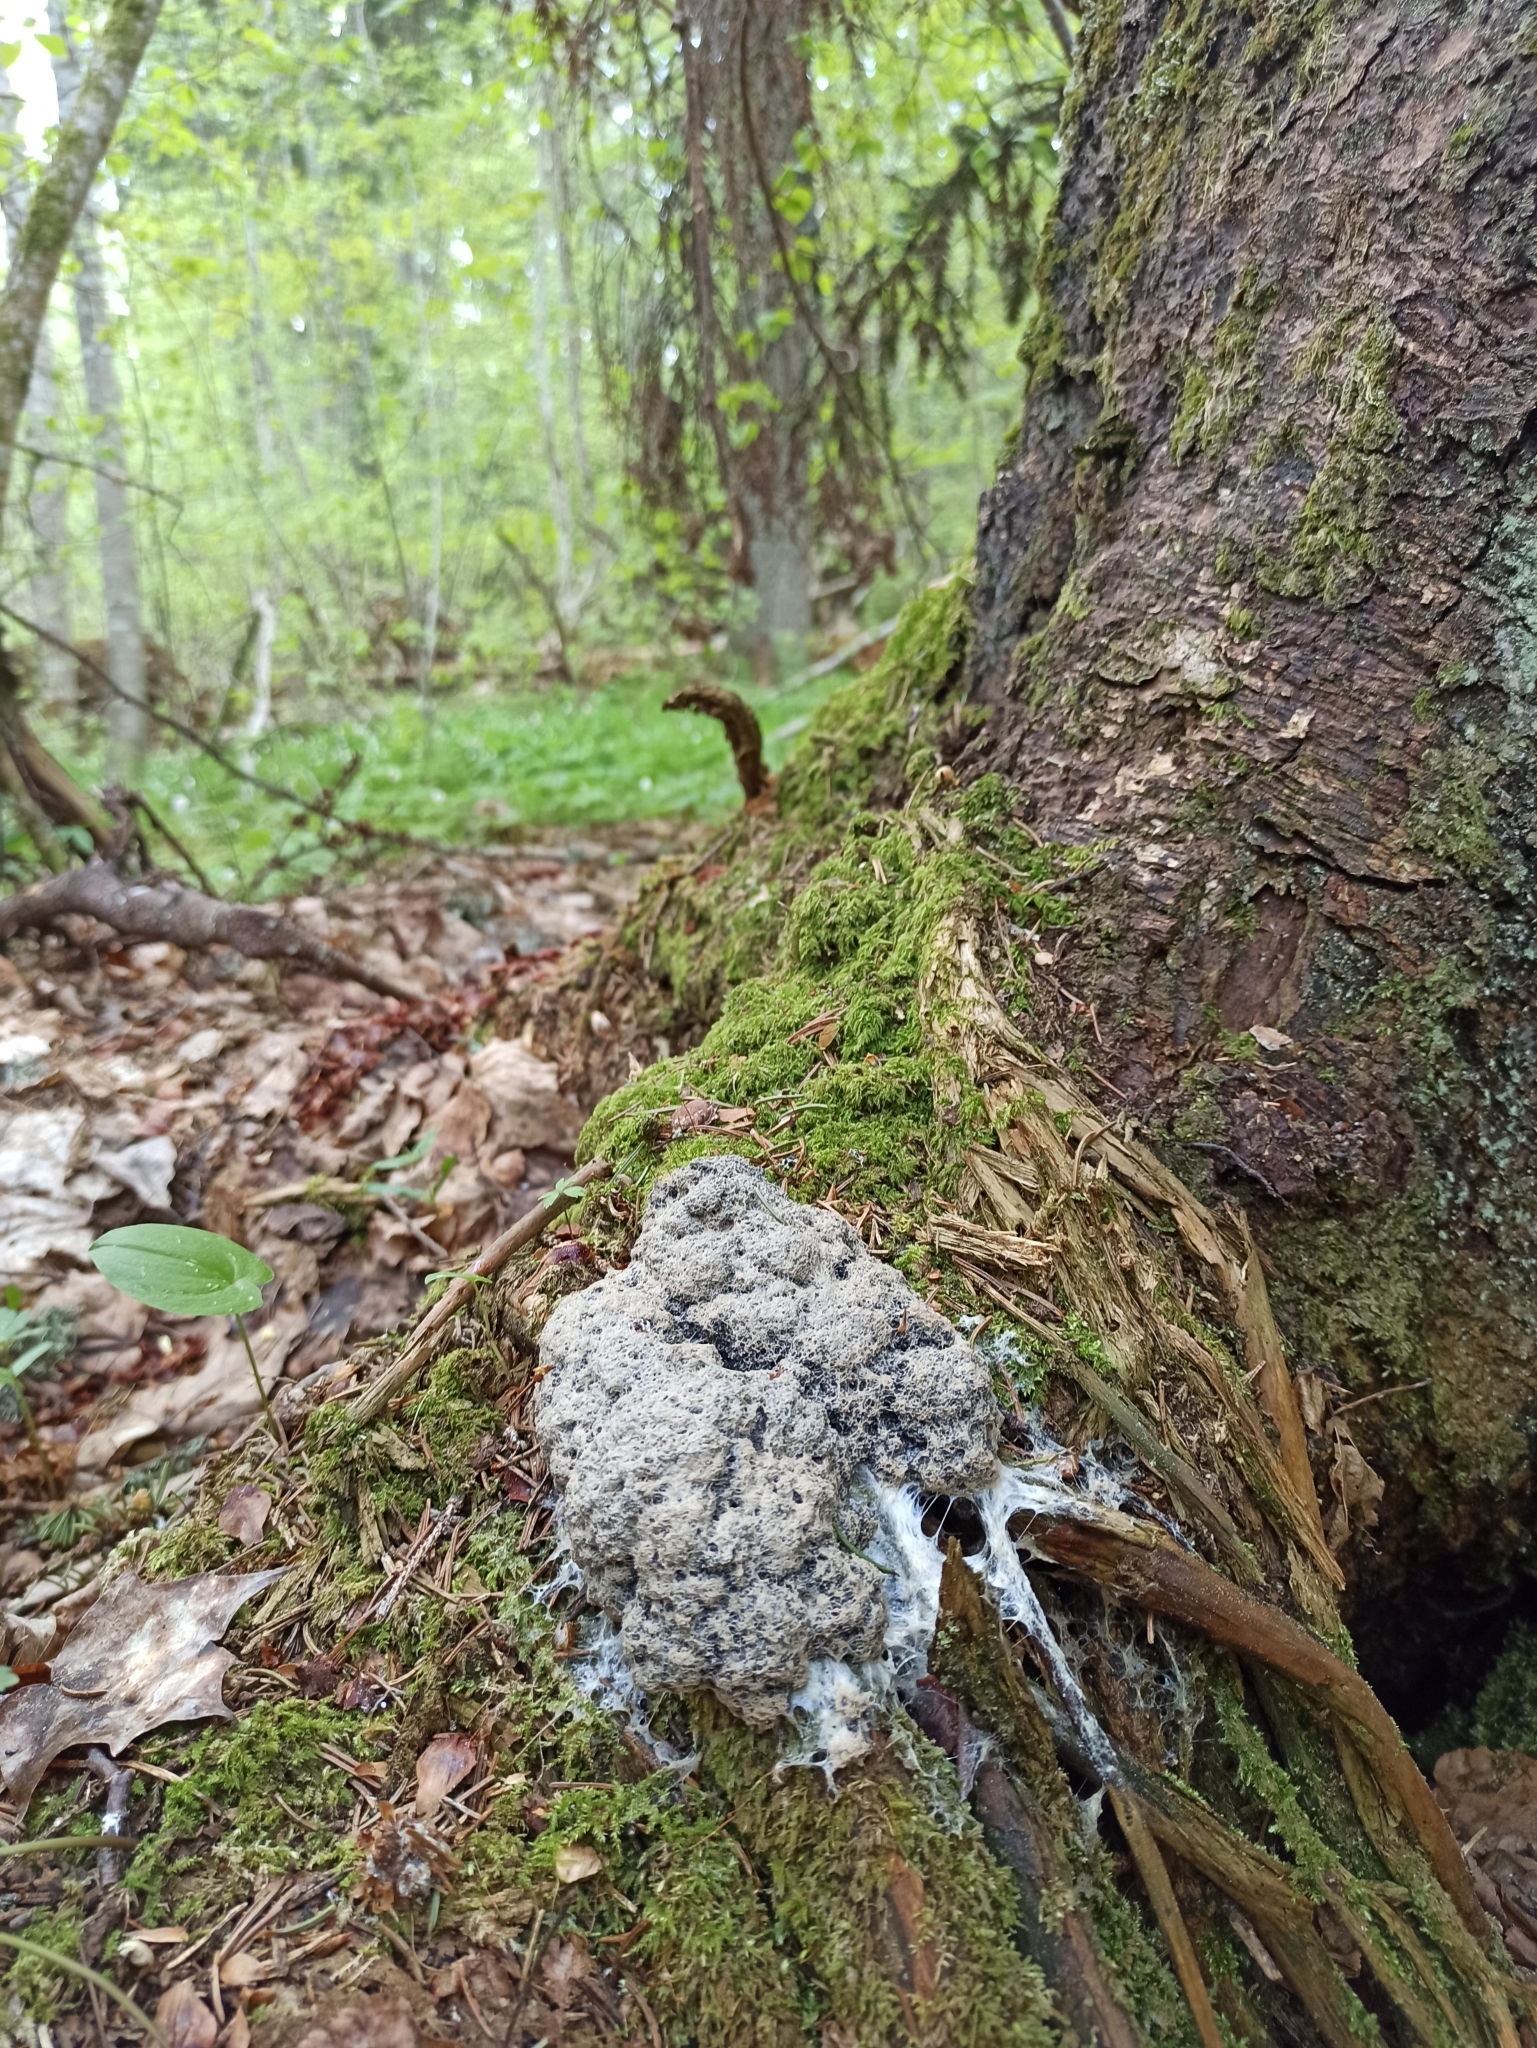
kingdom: Protozoa
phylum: Mycetozoa
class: Myxomycetes
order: Physarales
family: Physaraceae
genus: Fuligo
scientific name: Fuligo septica
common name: Dog vomit slime mold
